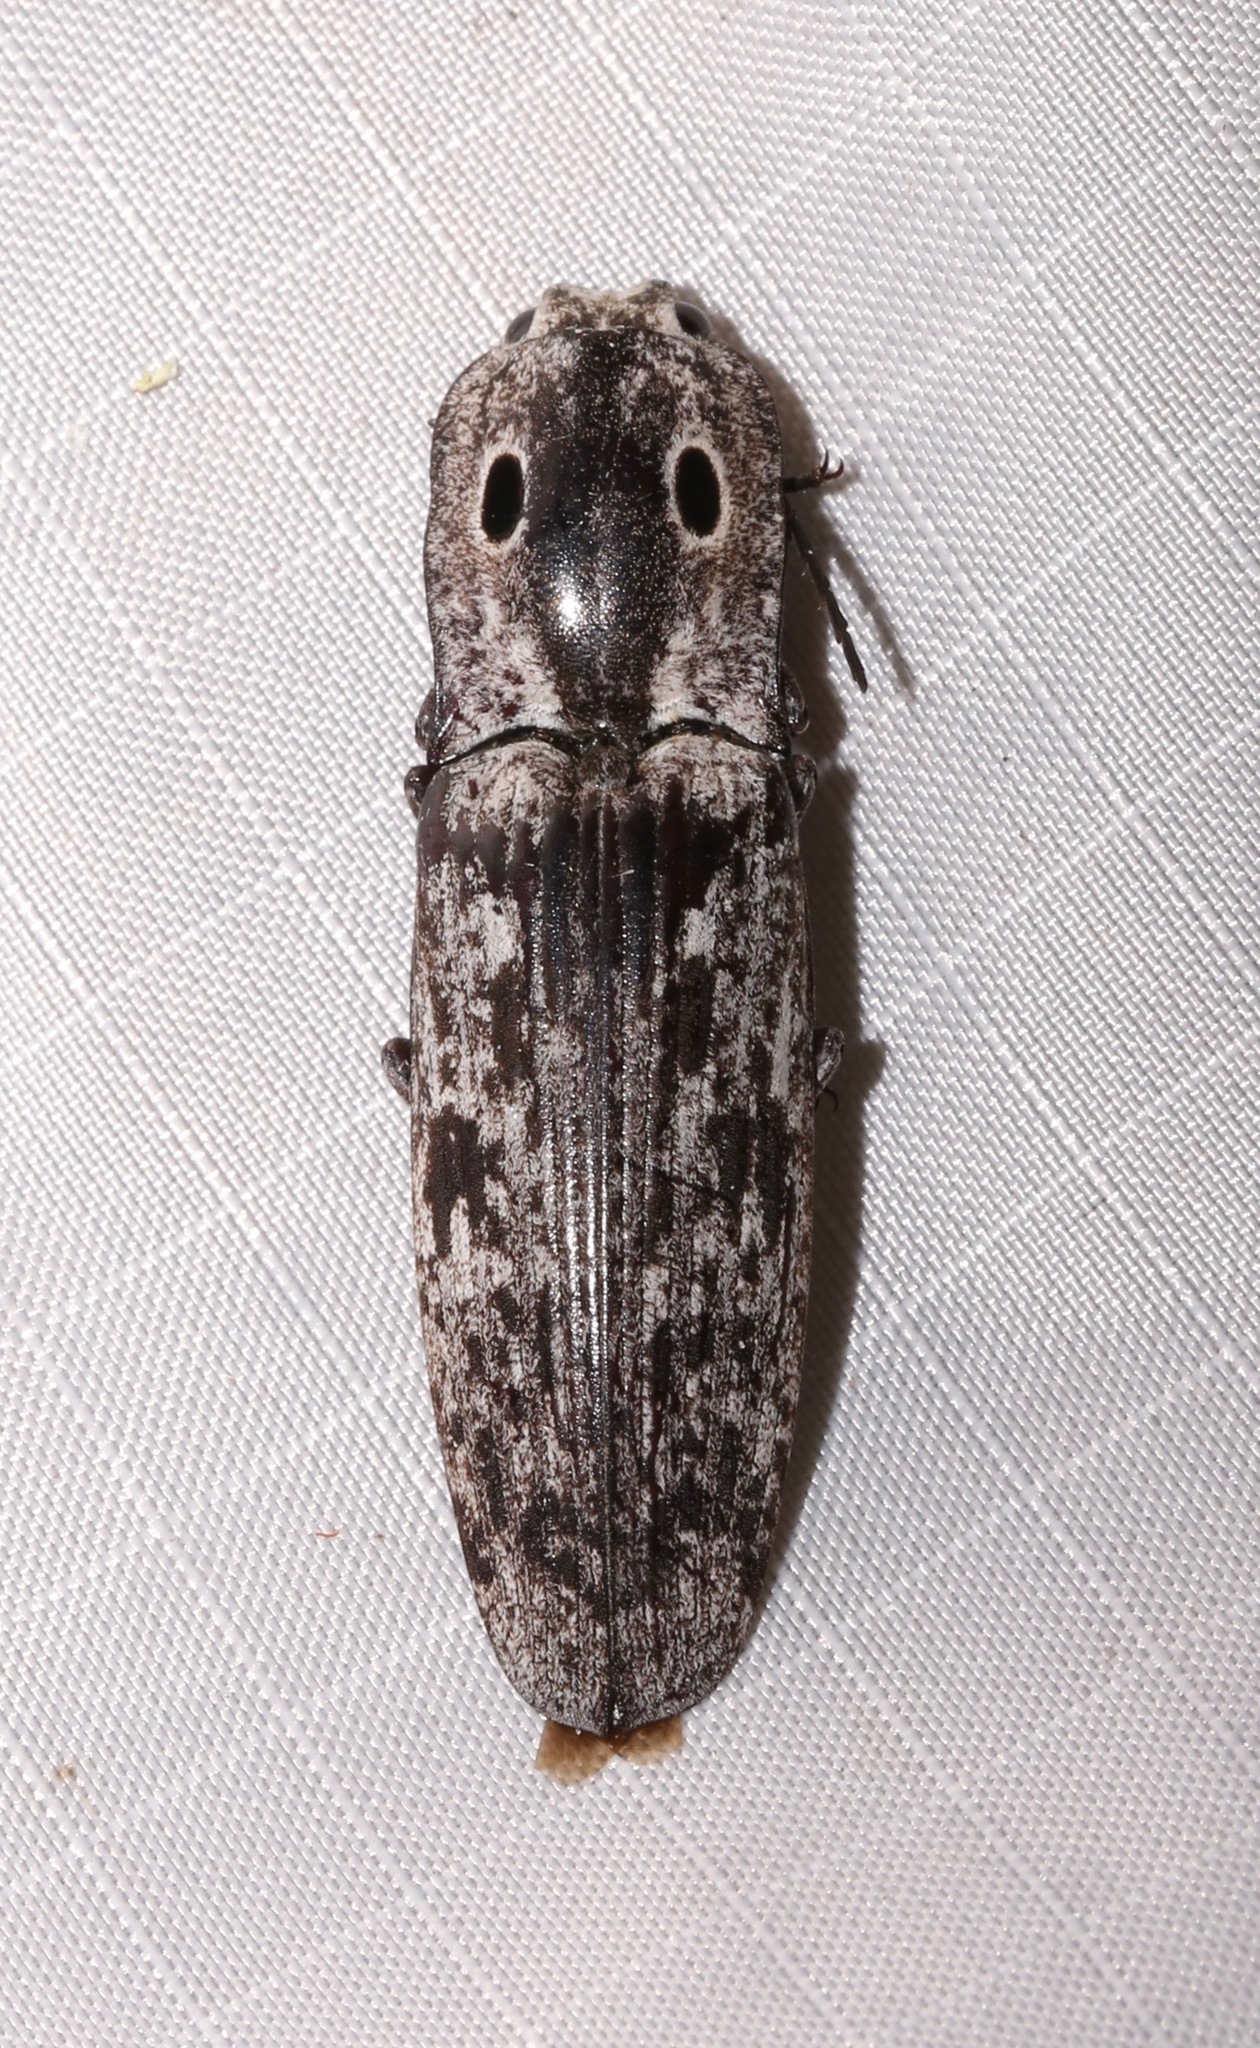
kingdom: Animalia
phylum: Arthropoda
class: Insecta
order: Coleoptera
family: Elateridae
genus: Alaus
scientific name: Alaus myops
